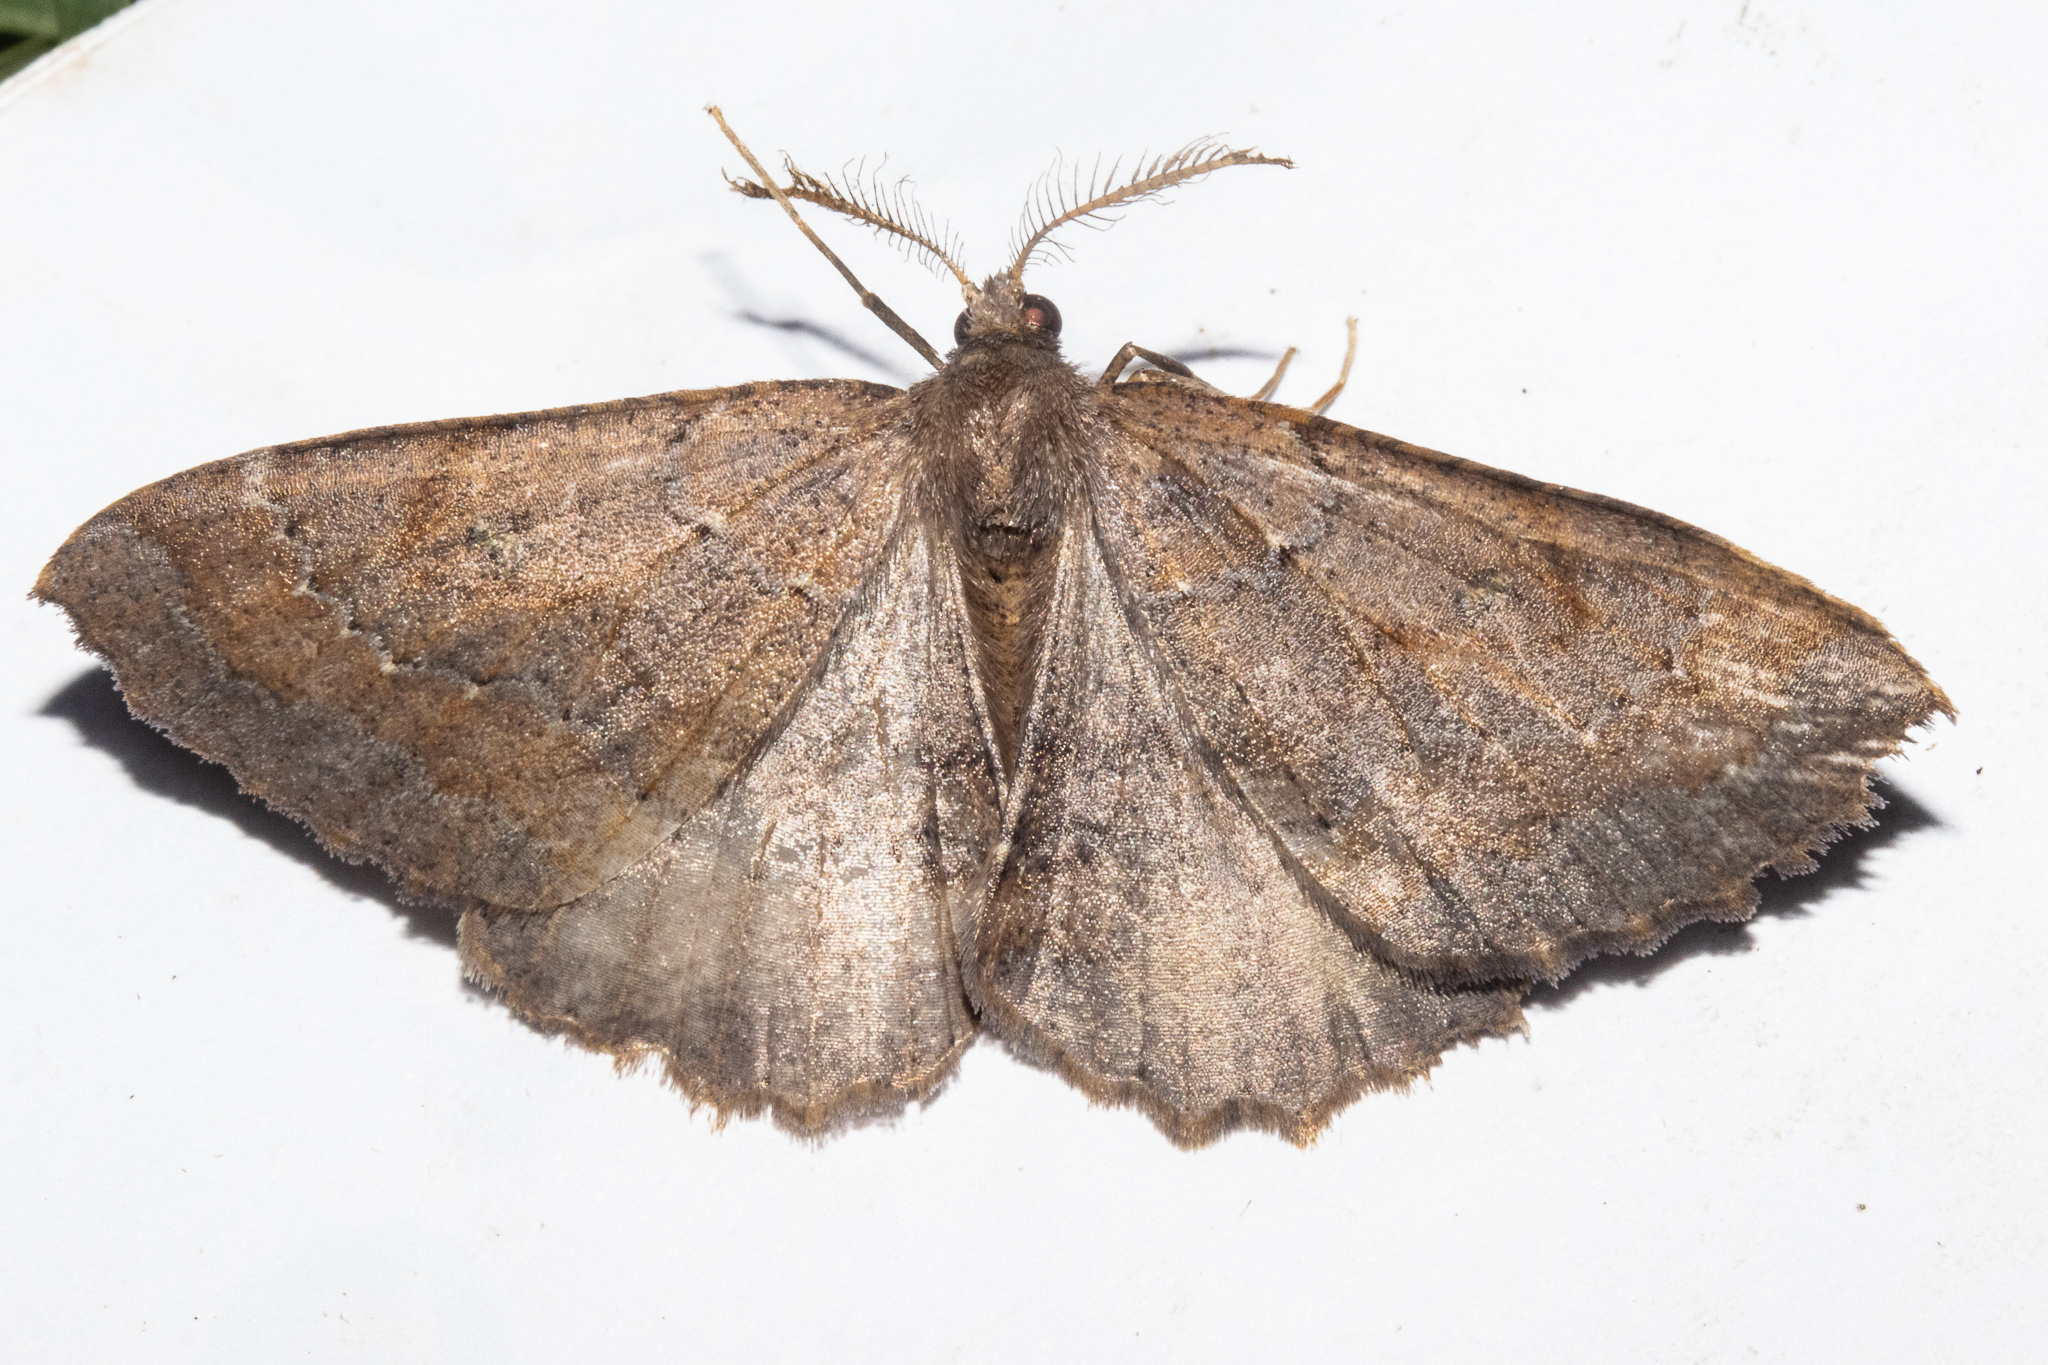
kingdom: Animalia
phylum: Arthropoda
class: Insecta
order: Lepidoptera
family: Geometridae
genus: Cleora
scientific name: Cleora scriptaria
